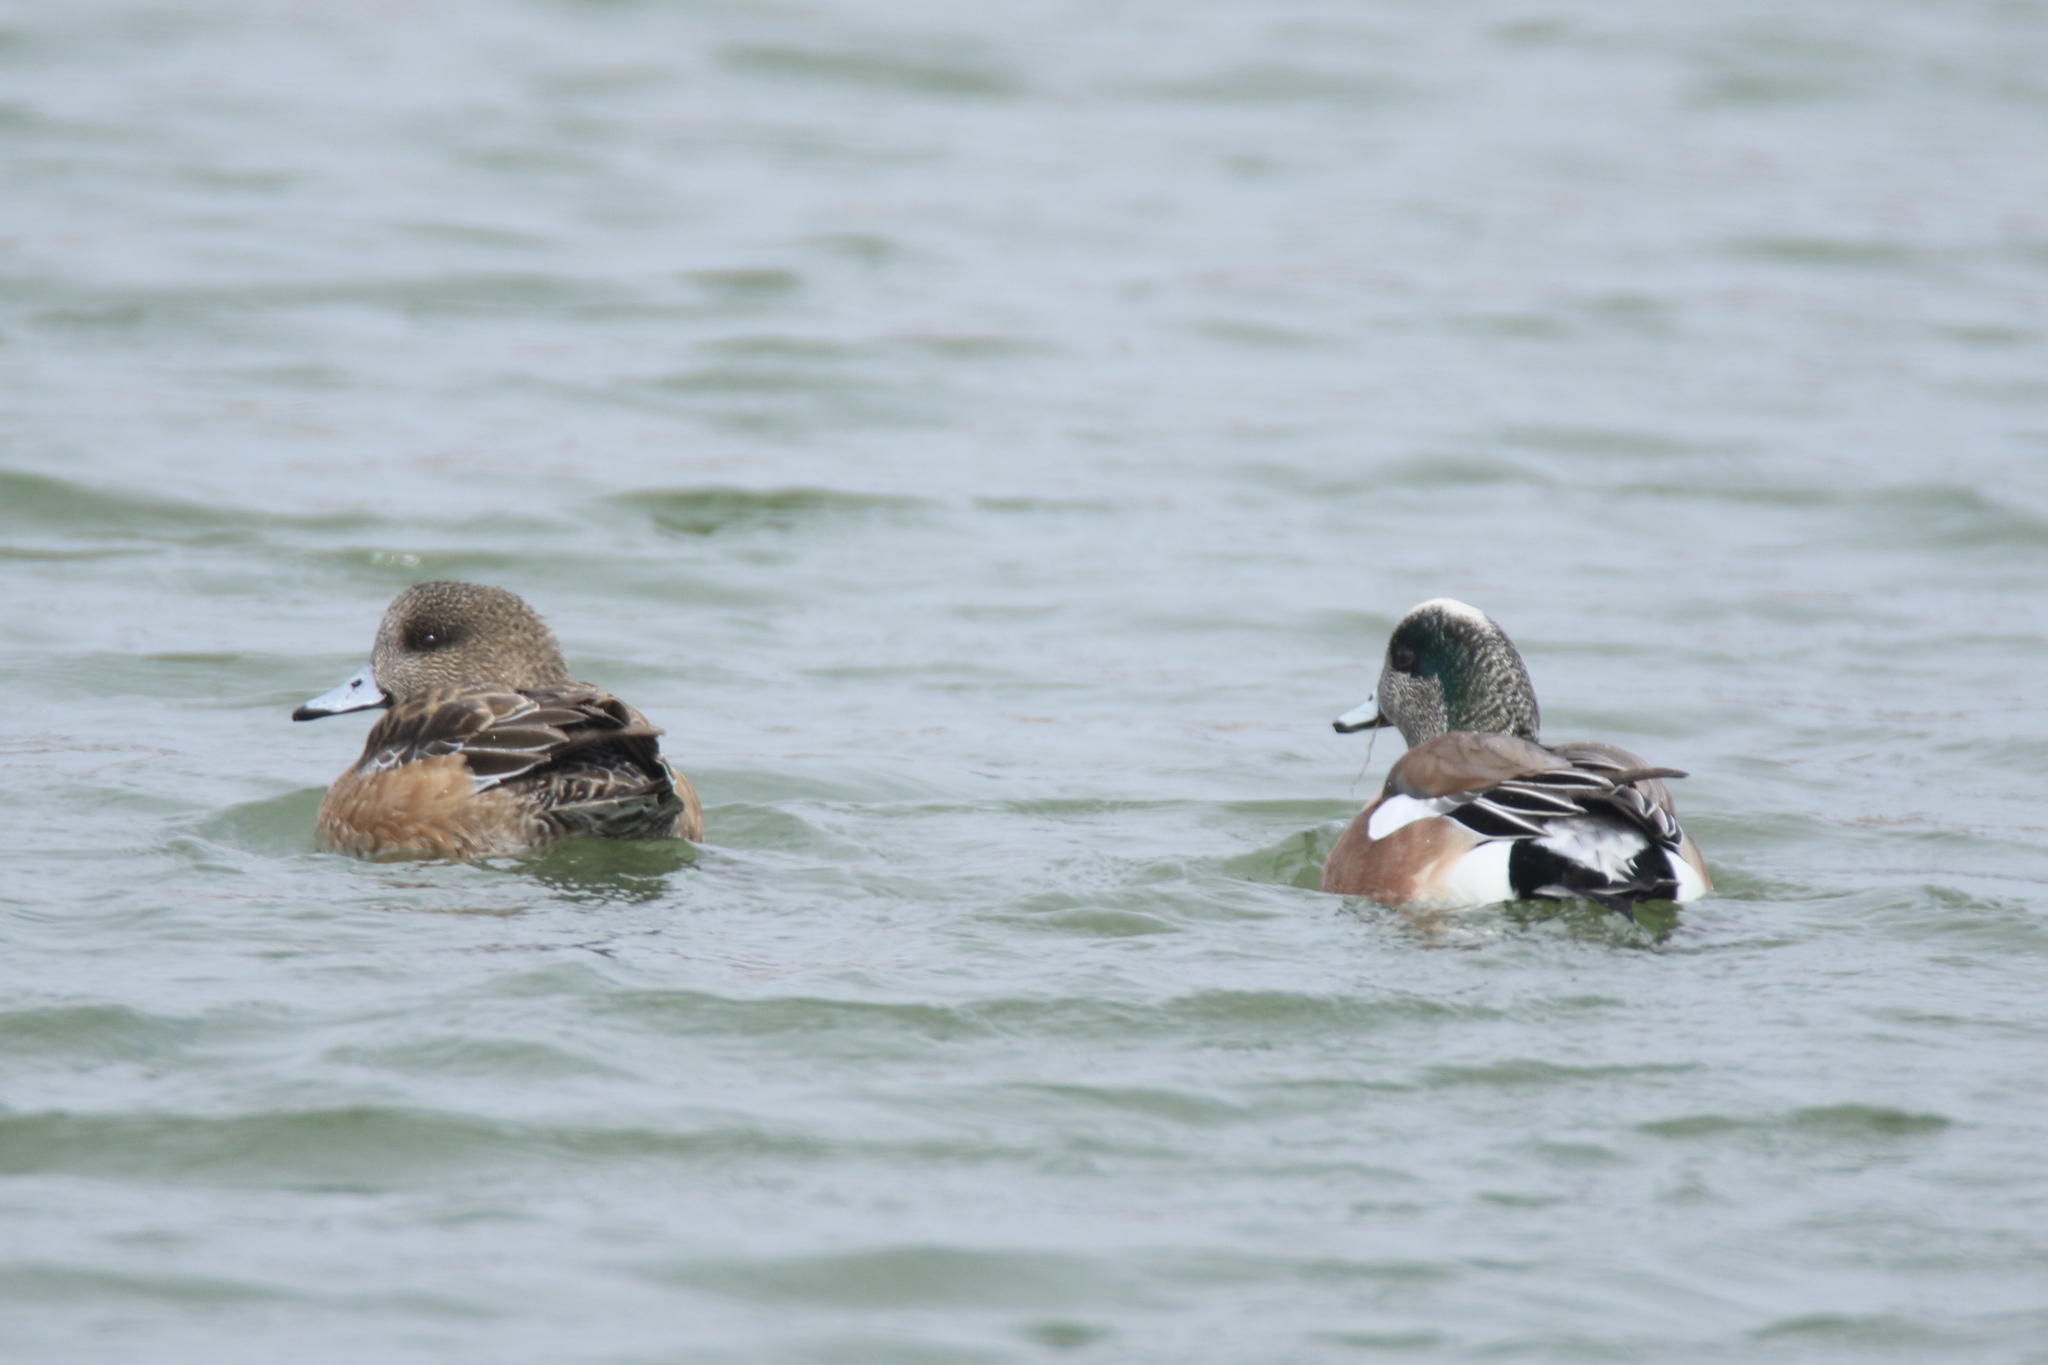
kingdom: Animalia
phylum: Chordata
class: Aves
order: Anseriformes
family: Anatidae
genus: Mareca
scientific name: Mareca americana
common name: American wigeon
